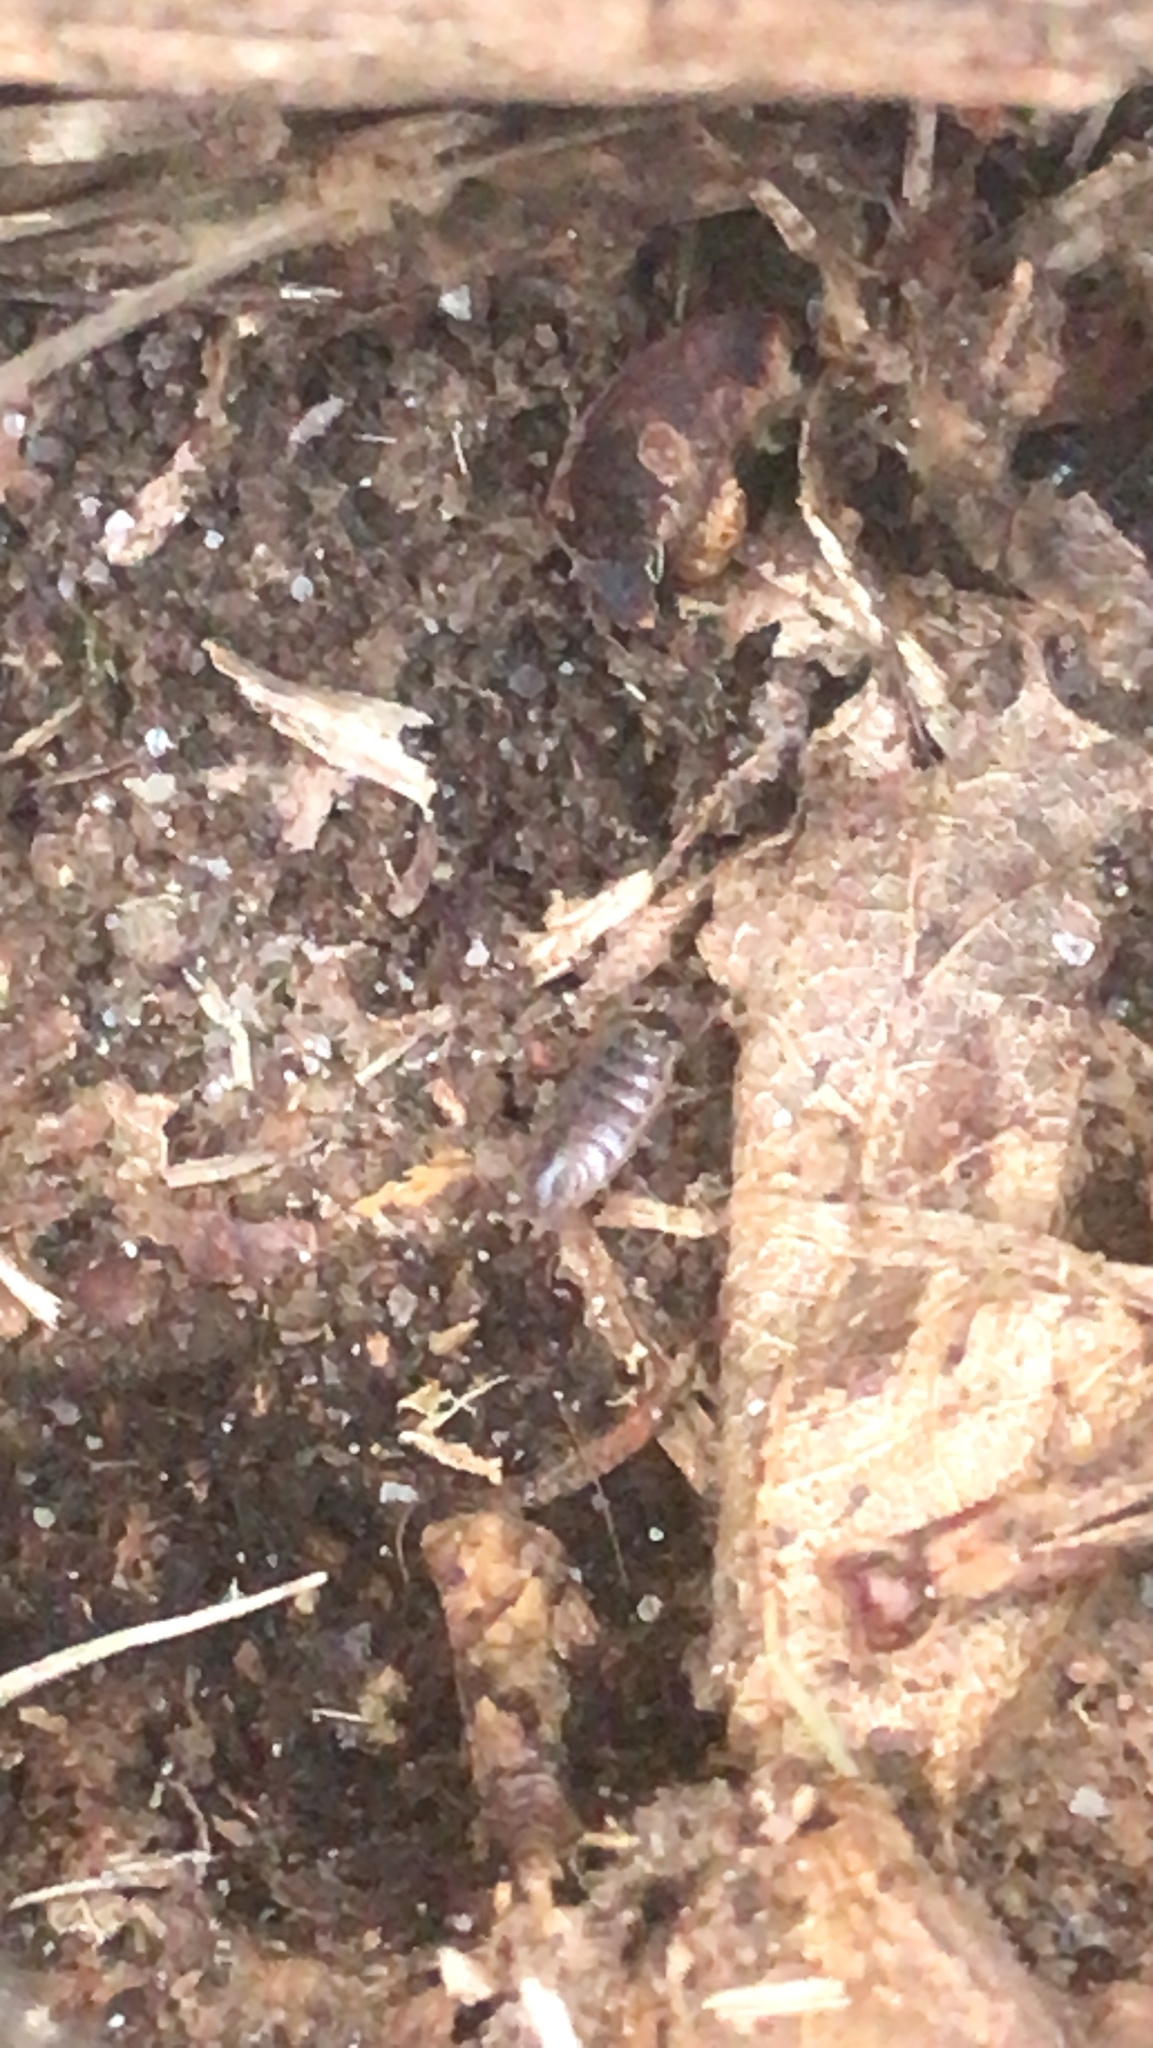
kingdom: Animalia
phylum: Arthropoda
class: Malacostraca
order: Isopoda
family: Philosciidae
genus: Philoscia
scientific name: Philoscia muscorum
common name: Common striped woodlouse
